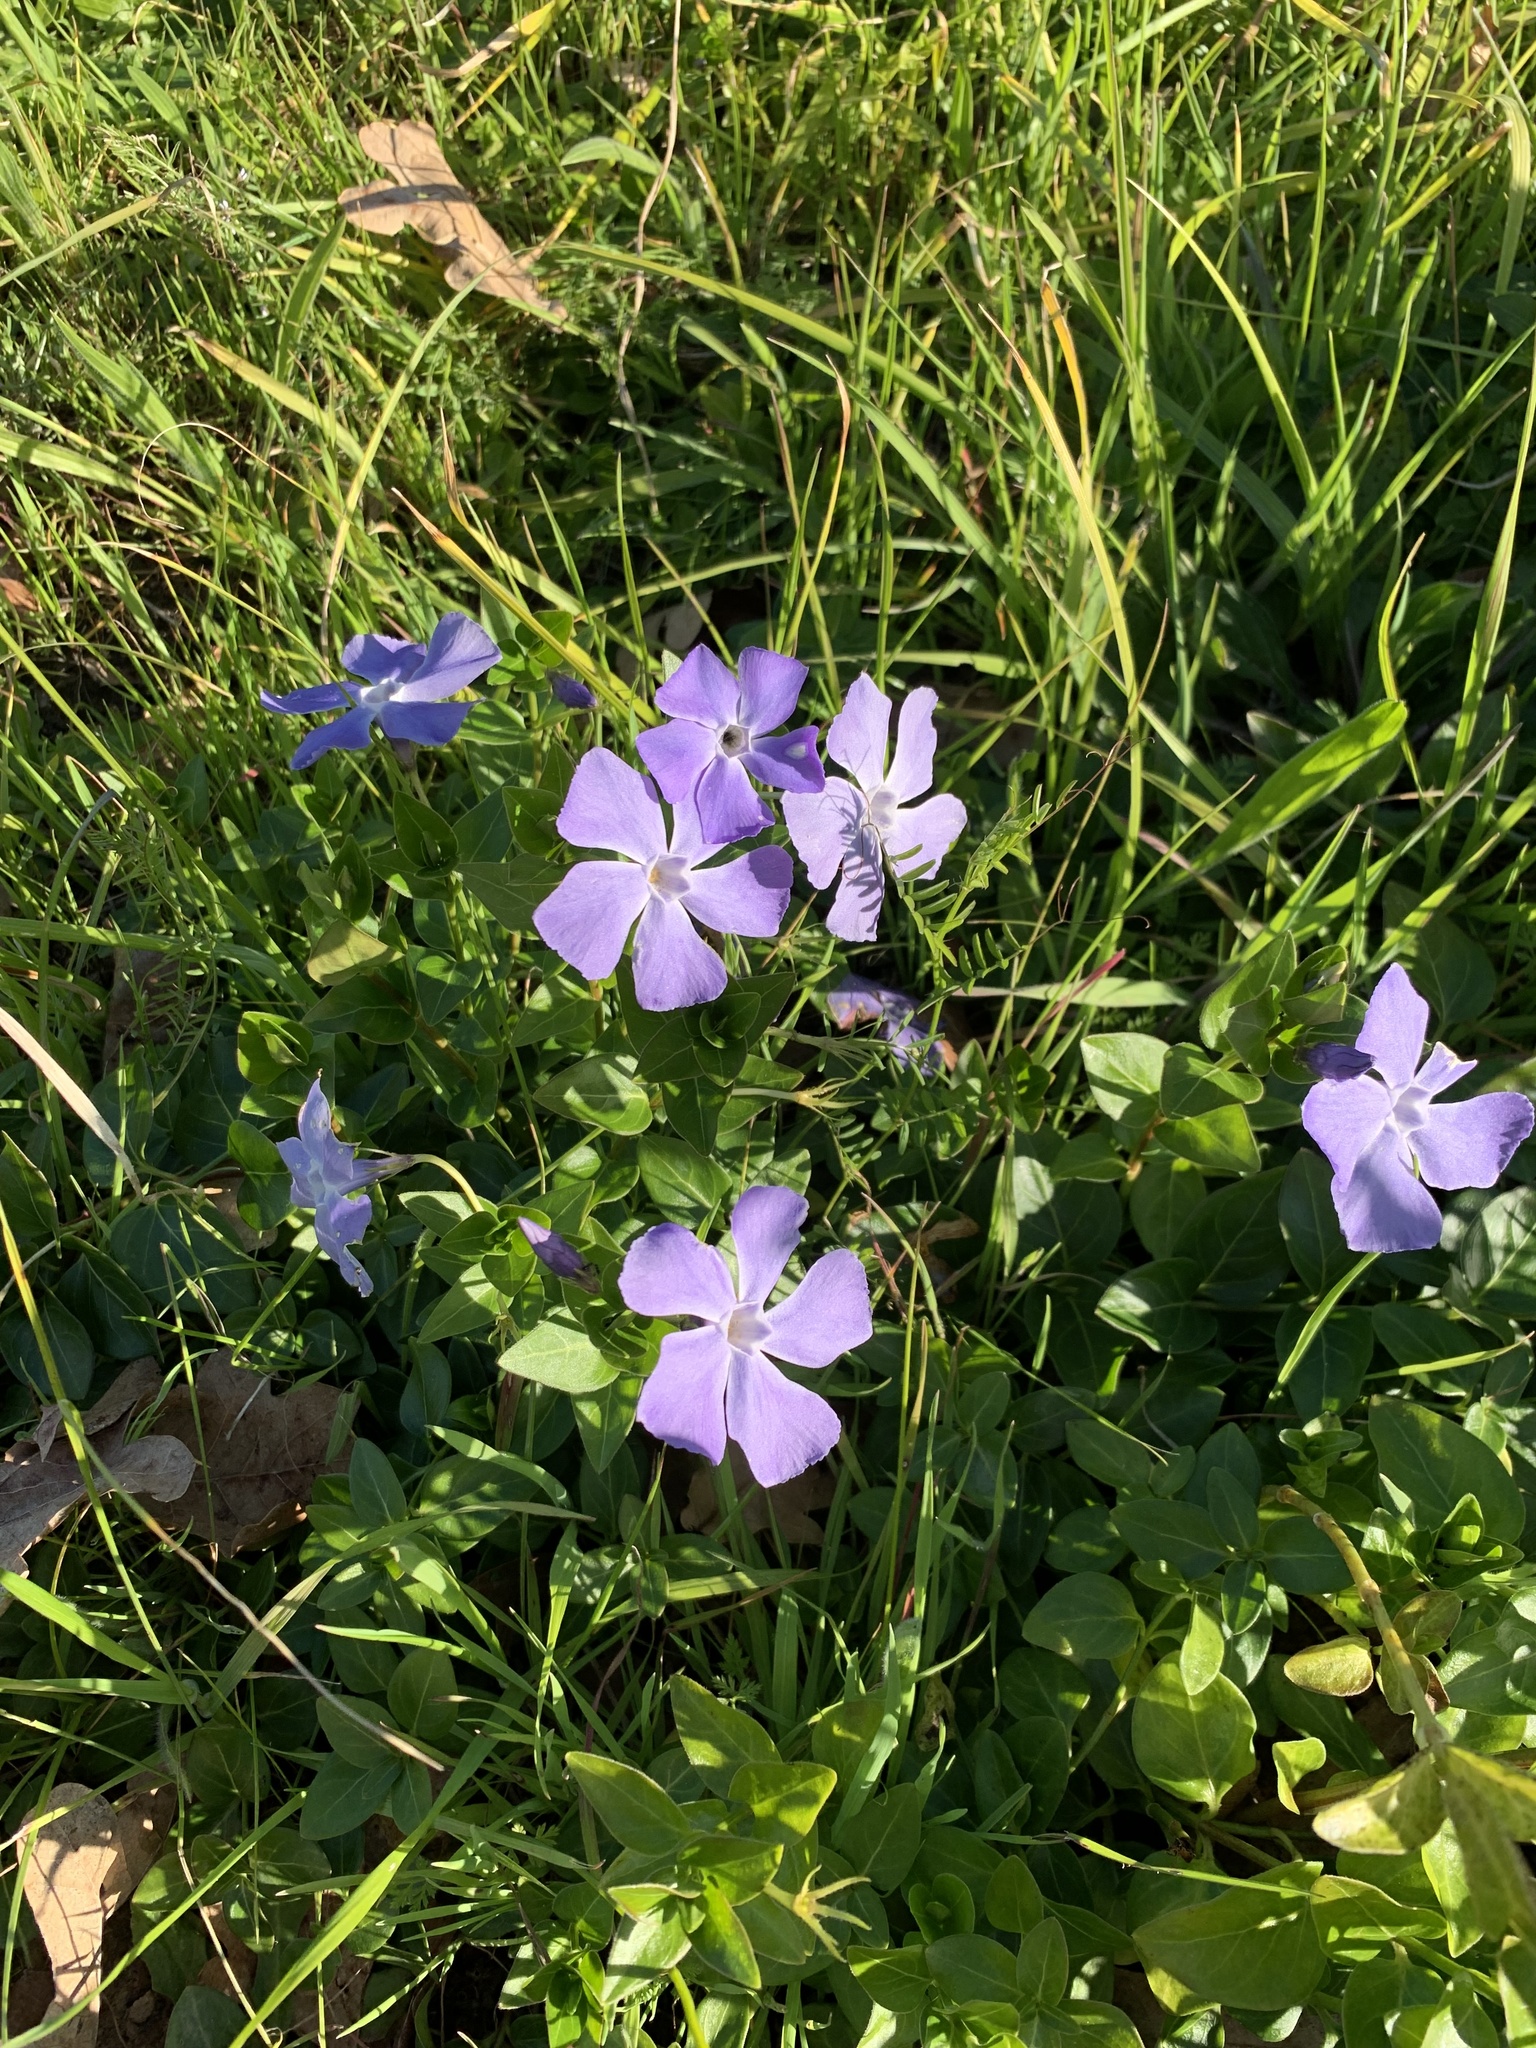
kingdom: Plantae
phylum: Tracheophyta
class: Magnoliopsida
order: Gentianales
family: Apocynaceae
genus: Vinca
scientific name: Vinca major
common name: Greater periwinkle
